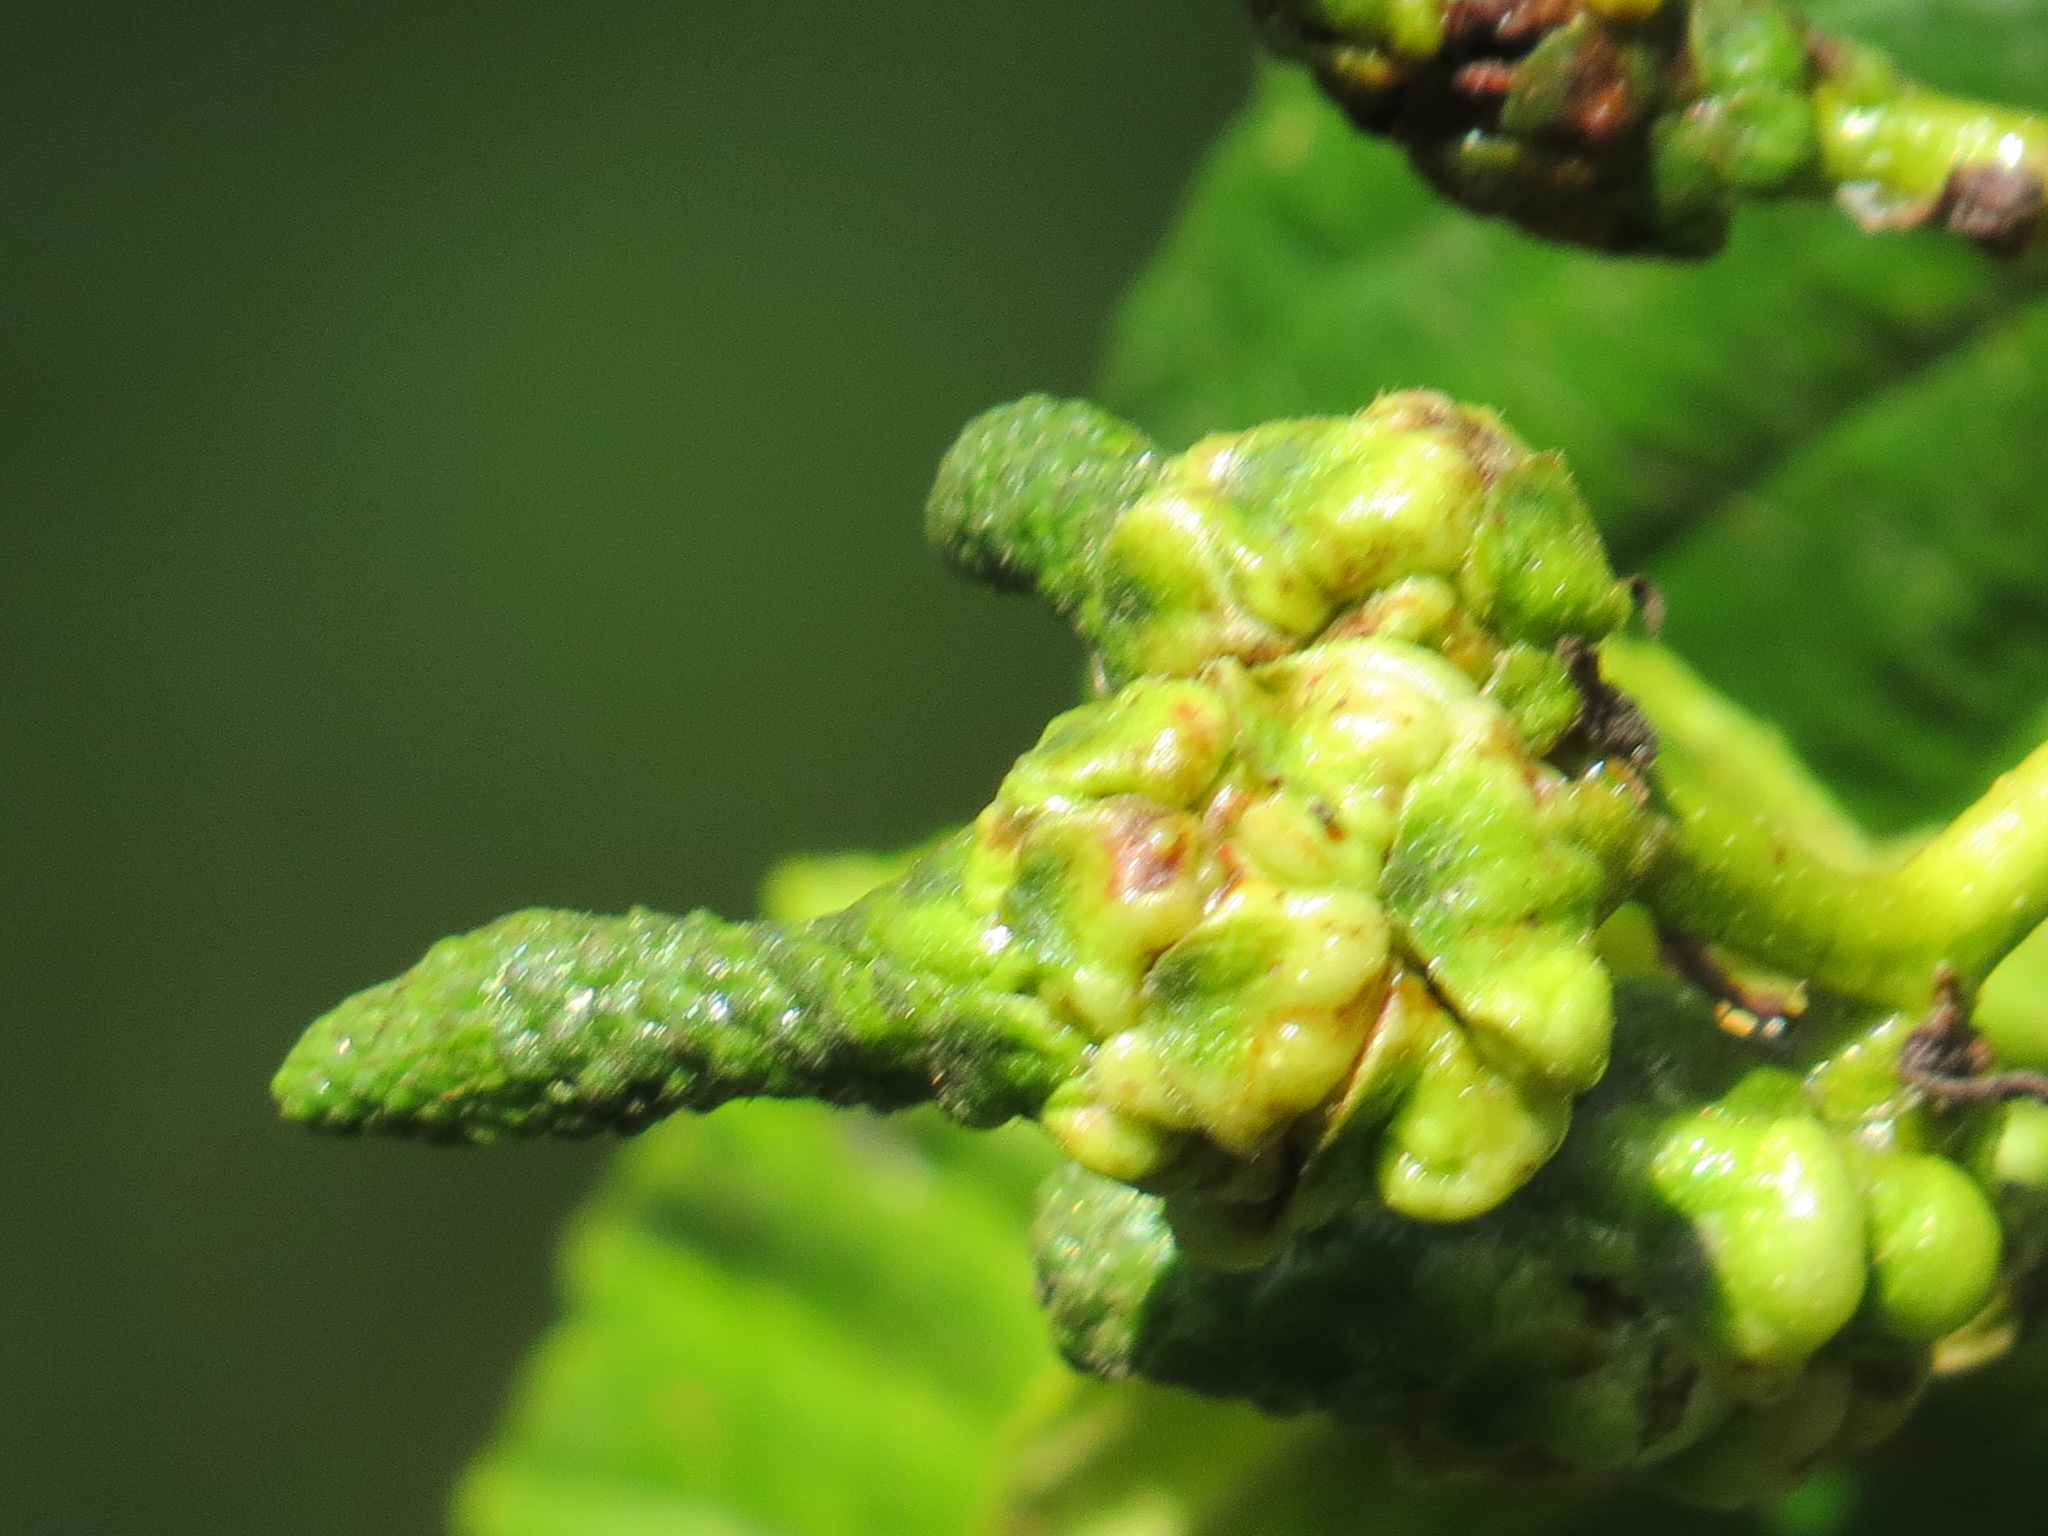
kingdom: Animalia
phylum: Arthropoda
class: Insecta
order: Diptera
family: Cecidomyiidae
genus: Dasineura
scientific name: Dasineura
